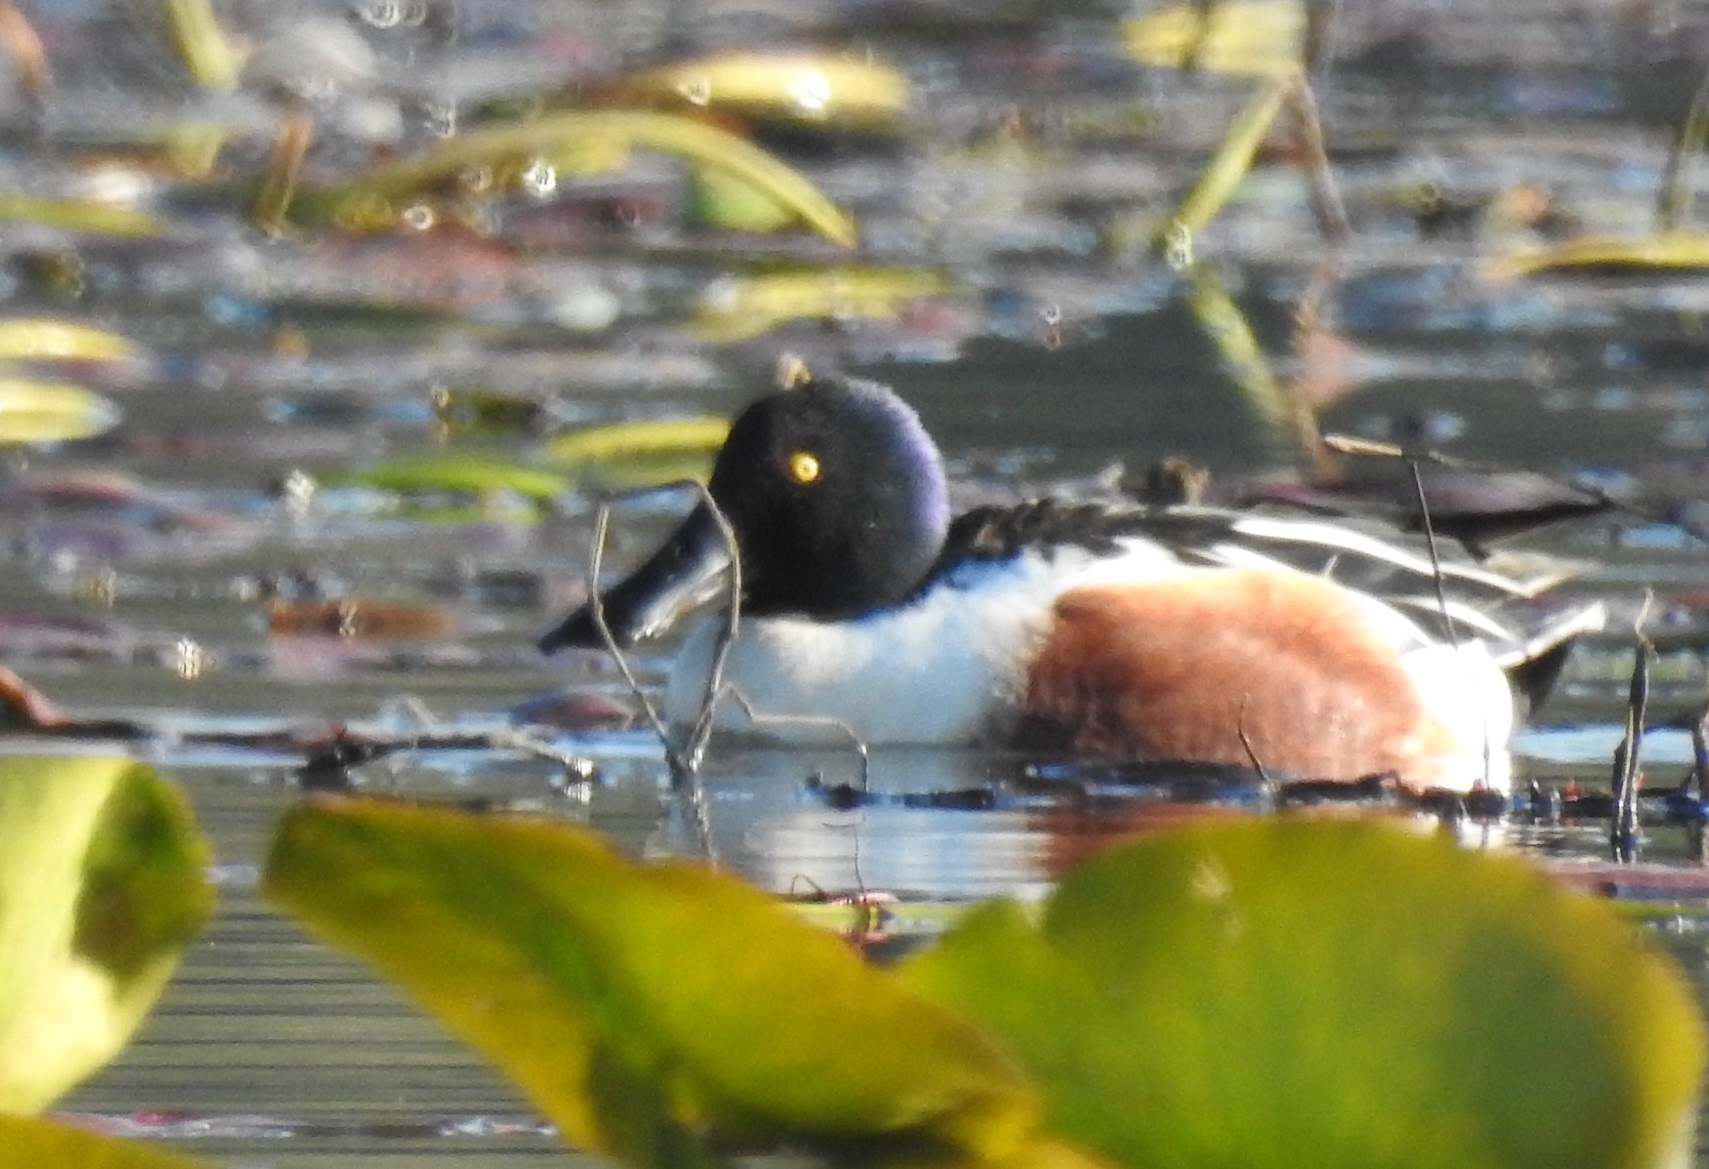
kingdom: Animalia
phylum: Chordata
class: Aves
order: Anseriformes
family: Anatidae
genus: Spatula
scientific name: Spatula clypeata
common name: Northern shoveler
